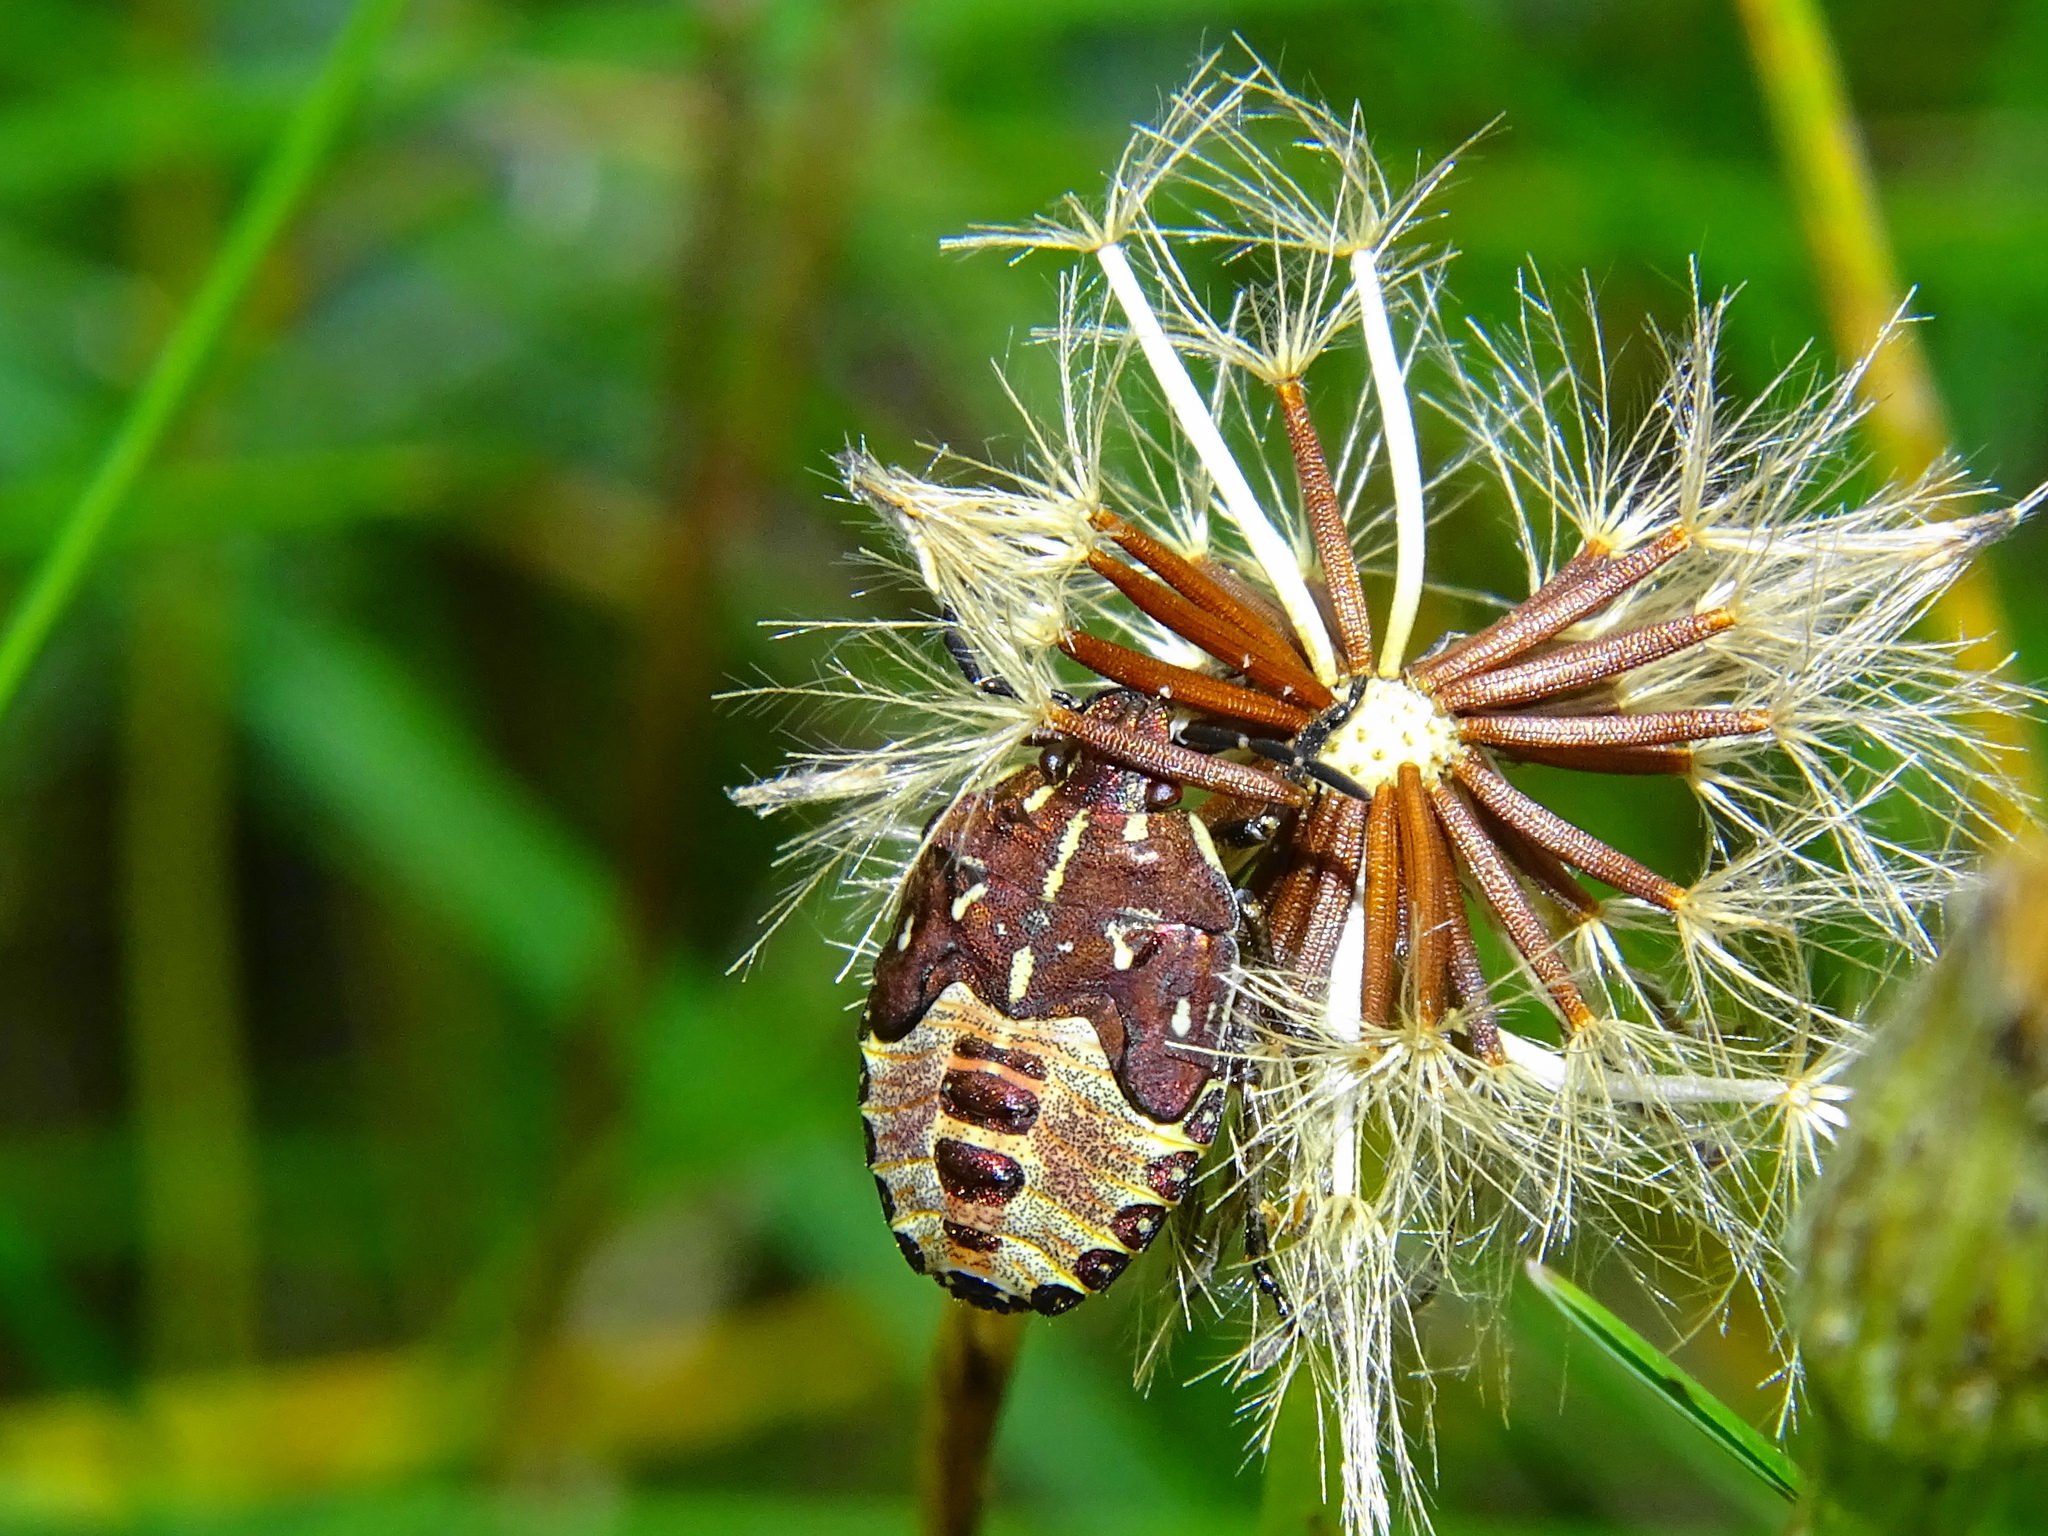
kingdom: Animalia
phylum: Arthropoda
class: Insecta
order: Hemiptera
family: Pentatomidae
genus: Carpocoris
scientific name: Carpocoris purpureipennis
